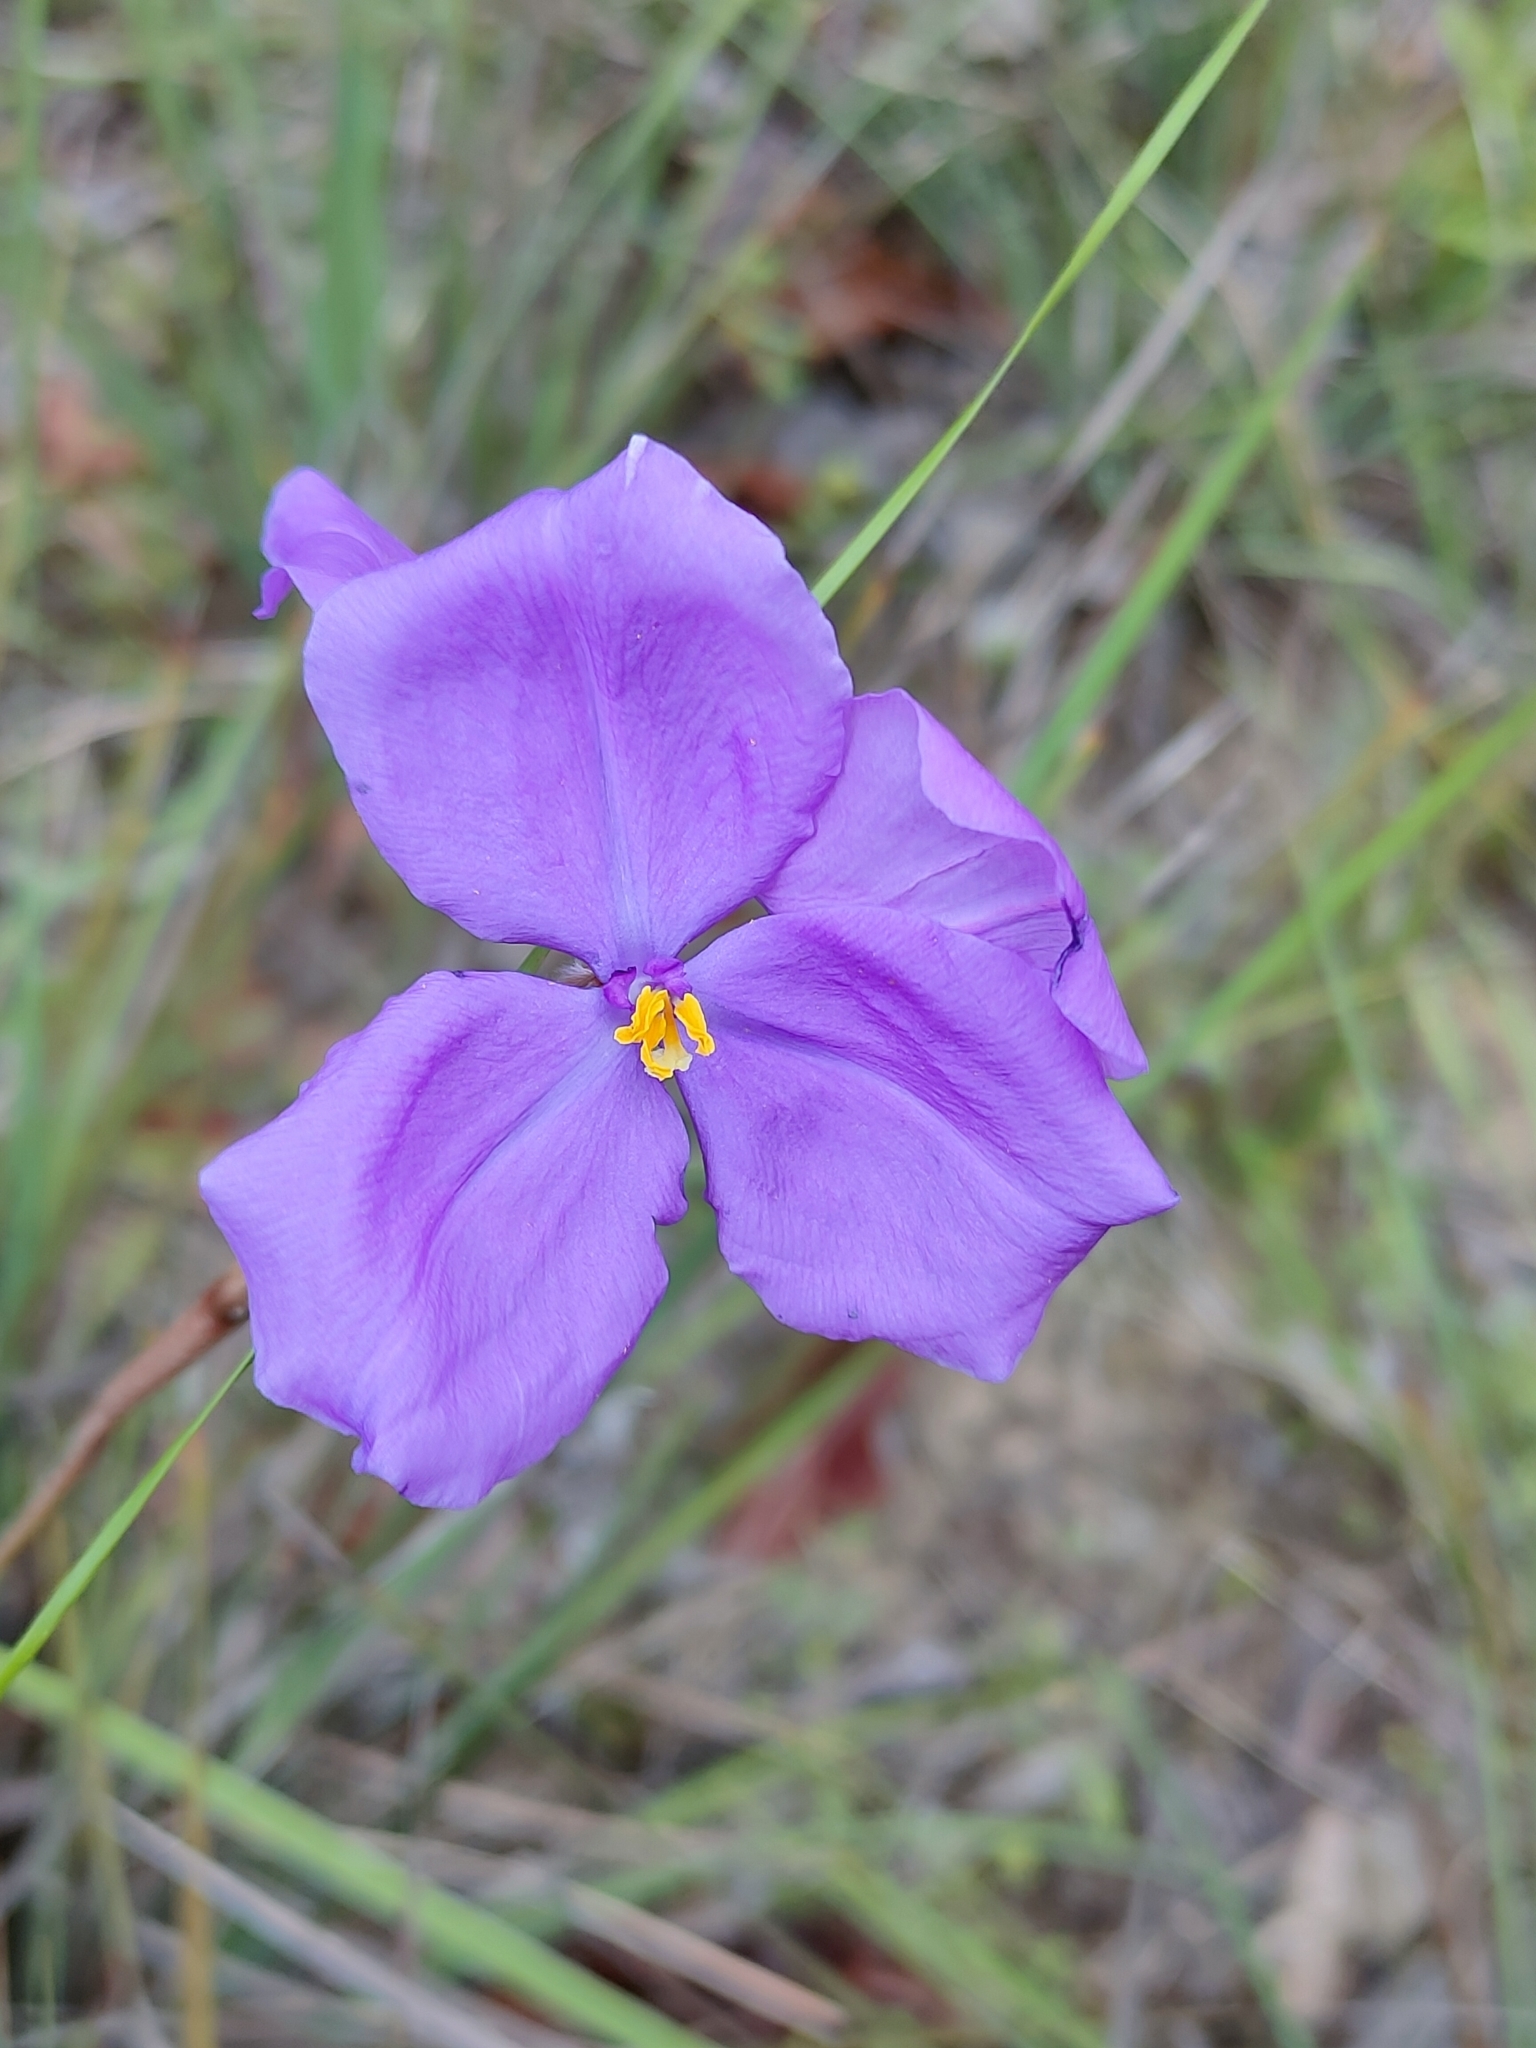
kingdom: Plantae
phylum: Tracheophyta
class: Liliopsida
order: Asparagales
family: Iridaceae
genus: Patersonia
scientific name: Patersonia sericea
